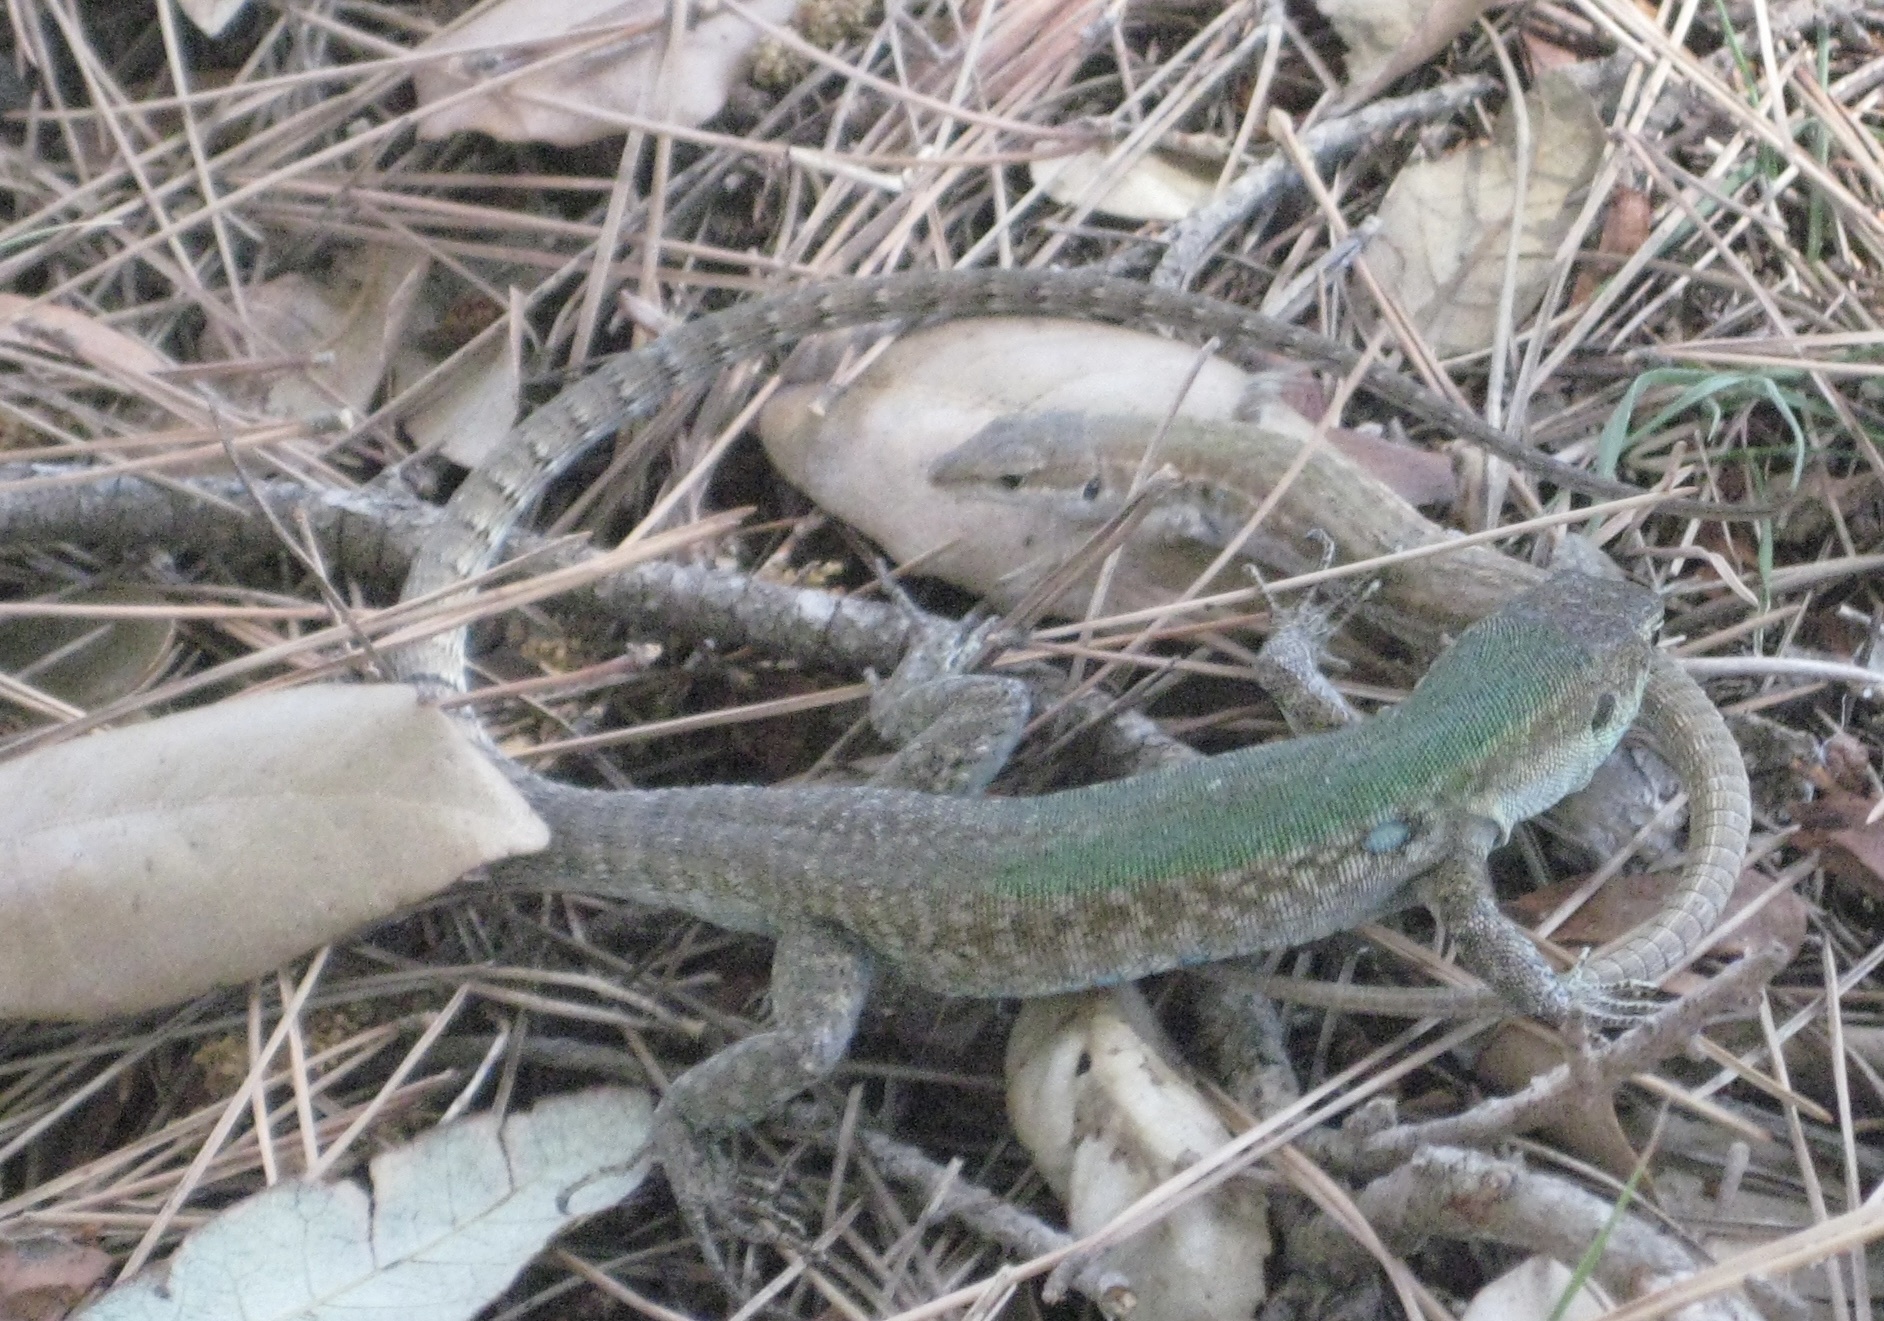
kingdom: Animalia
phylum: Chordata
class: Squamata
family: Lacertidae
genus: Podarcis
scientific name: Podarcis siculus
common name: Italian wall lizard
